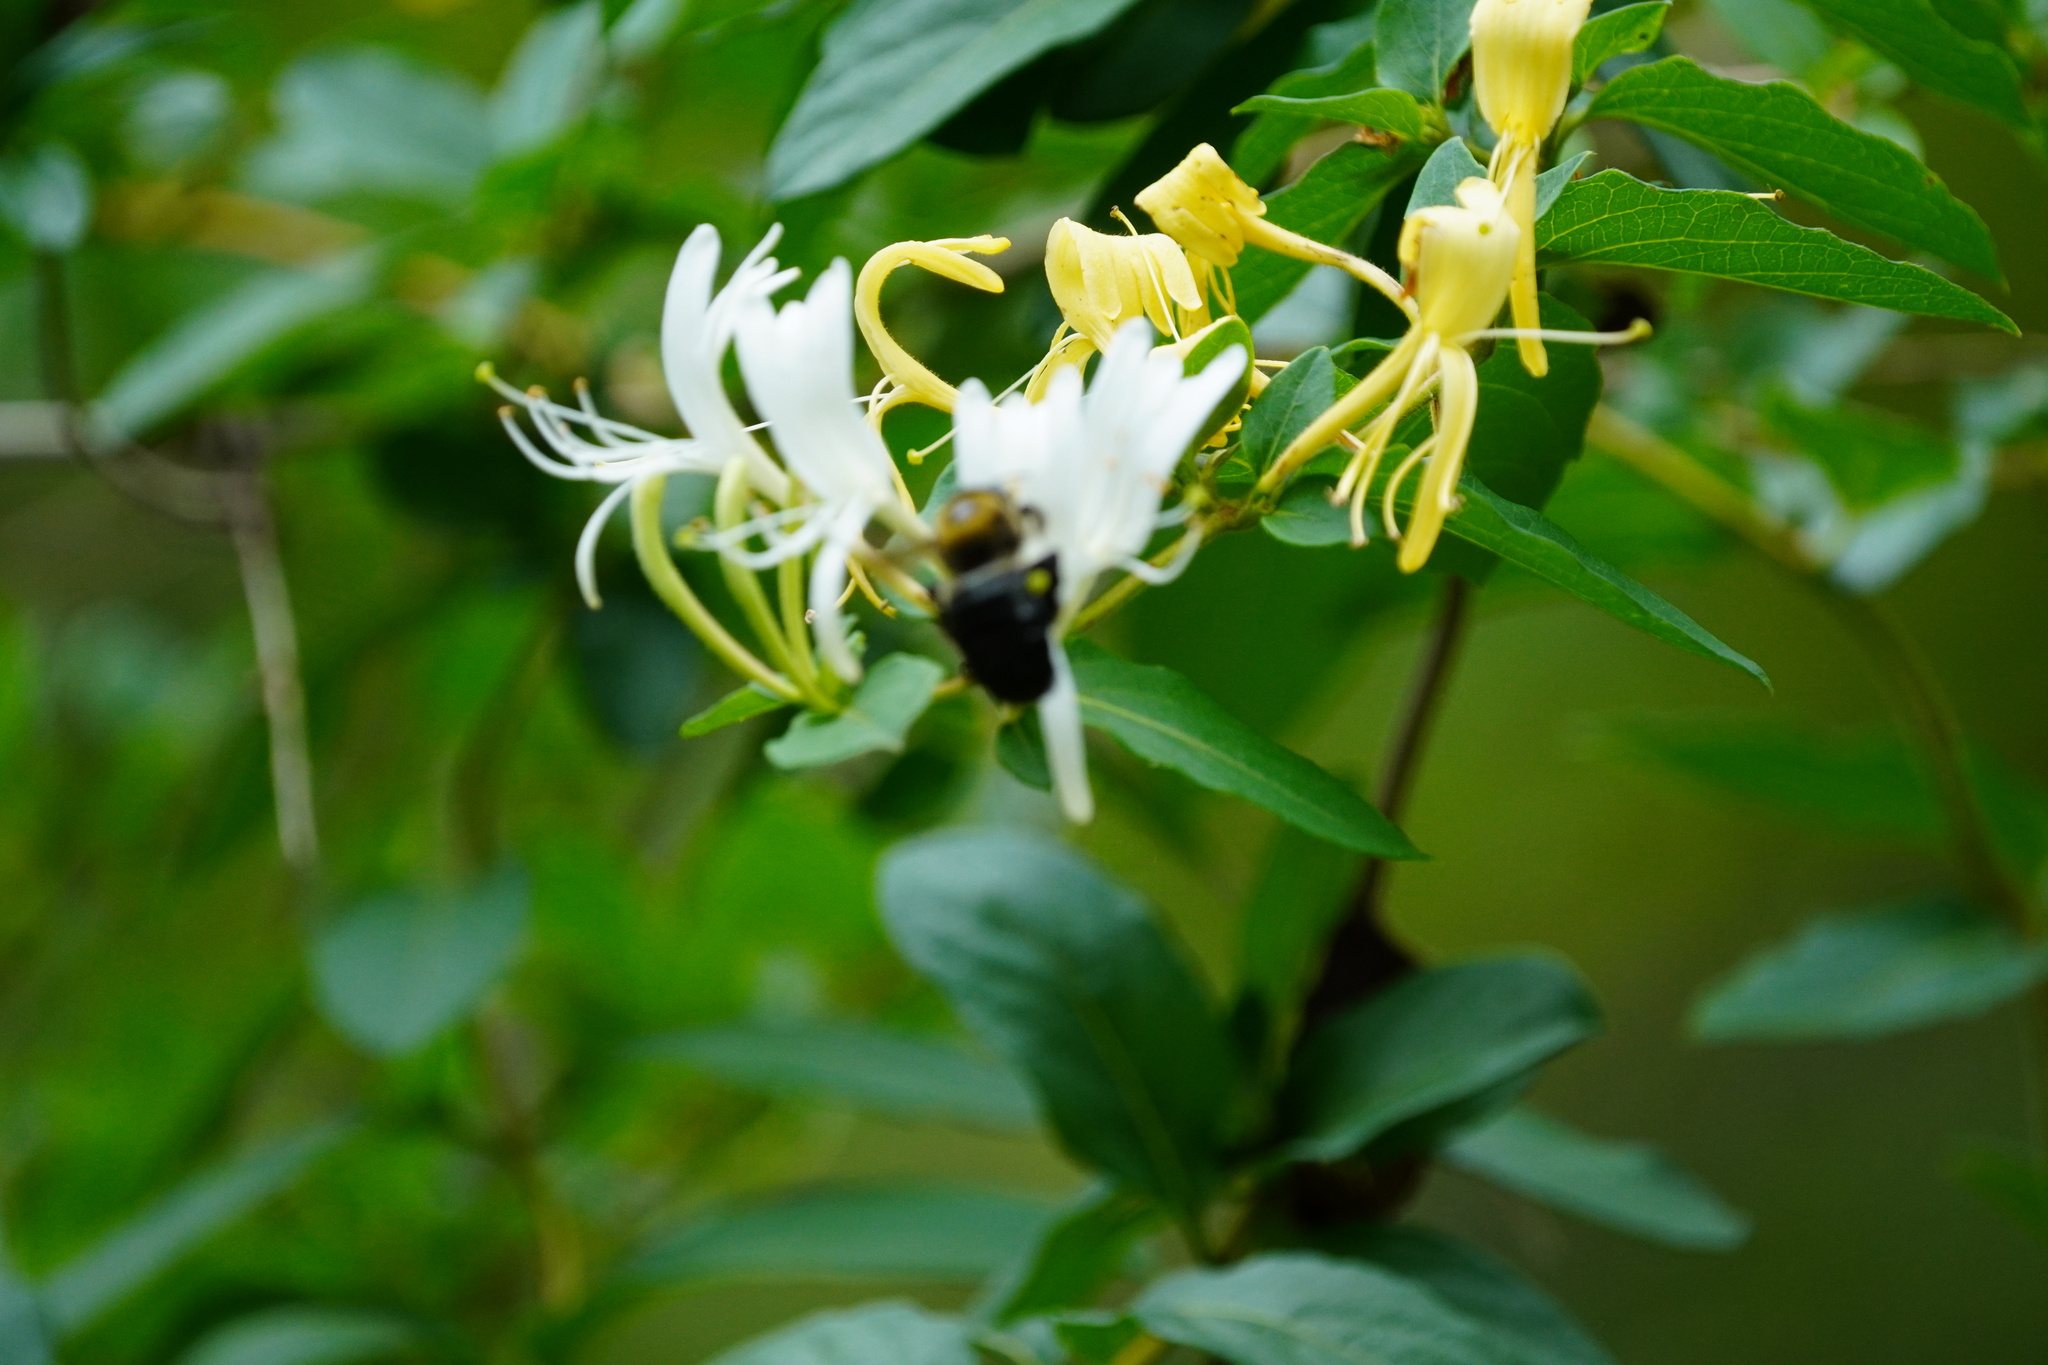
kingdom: Animalia
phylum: Arthropoda
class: Insecta
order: Hymenoptera
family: Apidae
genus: Xylocopa
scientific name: Xylocopa virginica
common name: Carpenter bee
